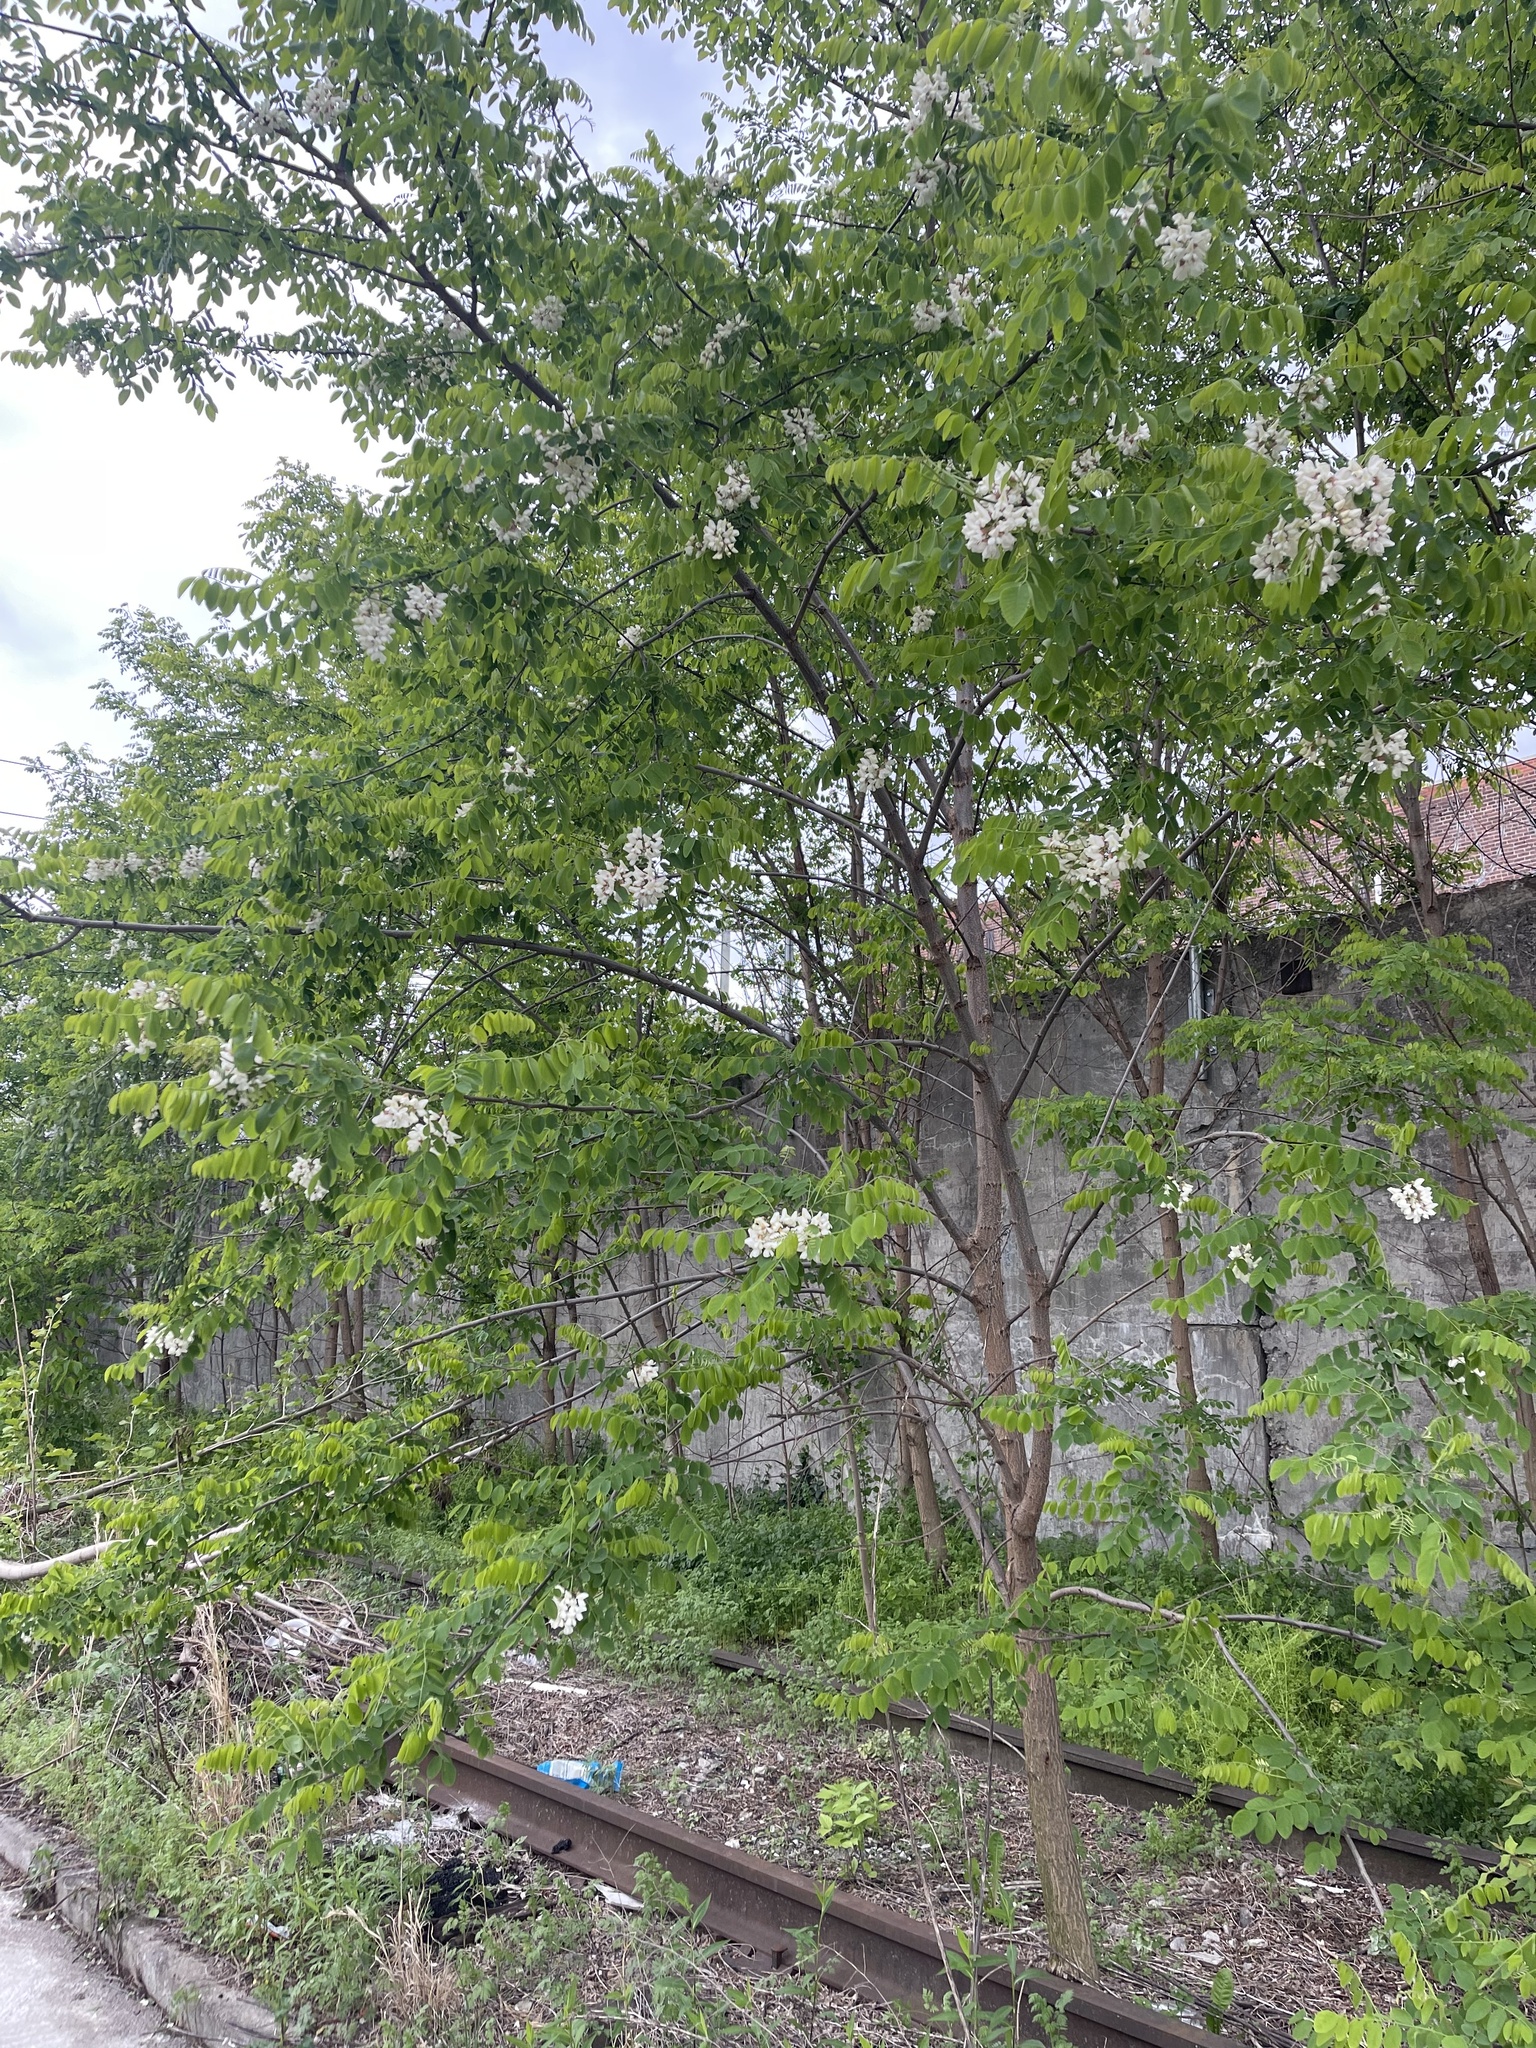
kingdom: Plantae
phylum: Tracheophyta
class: Magnoliopsida
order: Fabales
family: Fabaceae
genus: Robinia
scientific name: Robinia pseudoacacia
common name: Black locust
